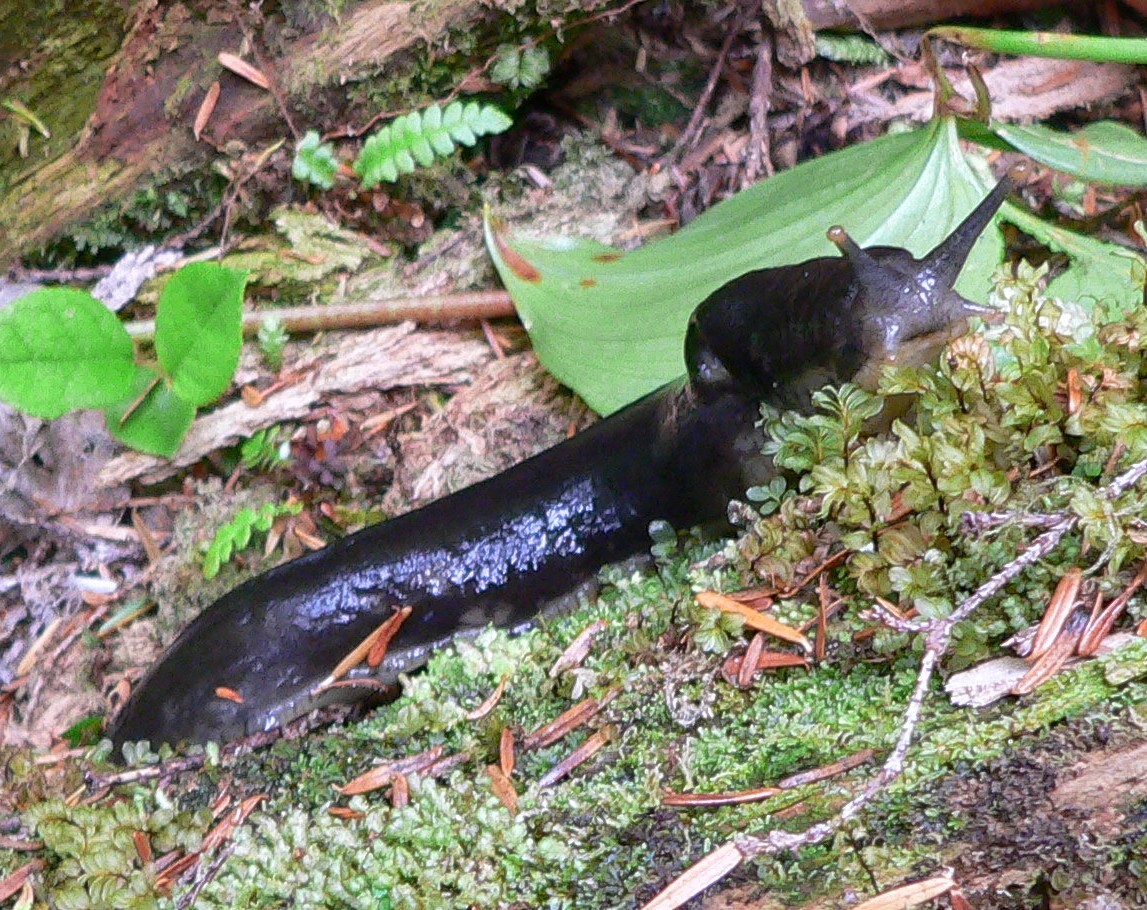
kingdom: Animalia
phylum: Mollusca
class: Gastropoda
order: Stylommatophora
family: Ariolimacidae
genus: Ariolimax
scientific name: Ariolimax columbianus
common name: Pacific banana slug
